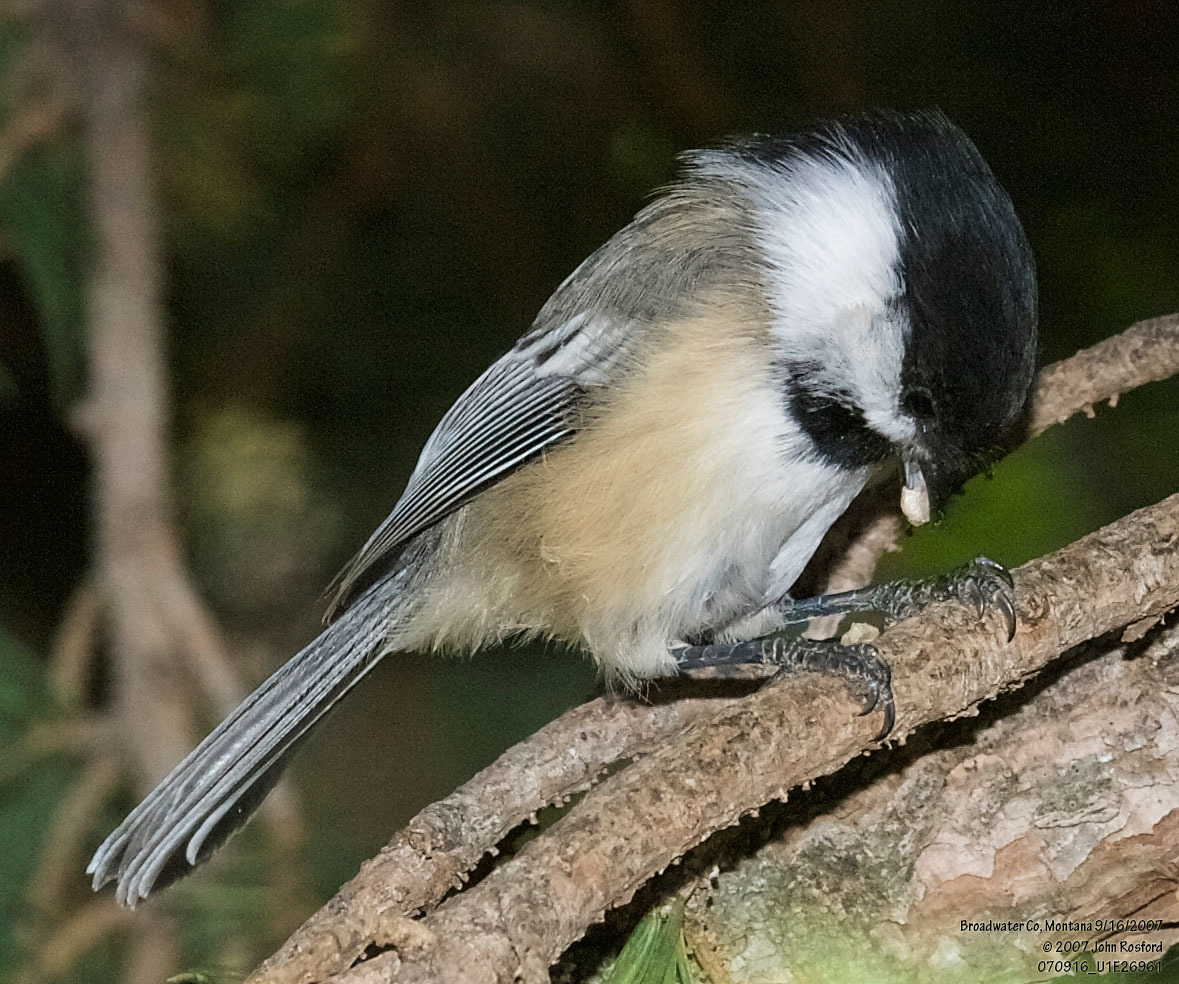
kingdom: Animalia
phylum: Chordata
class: Aves
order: Passeriformes
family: Paridae
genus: Poecile
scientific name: Poecile atricapillus
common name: Black-capped chickadee
